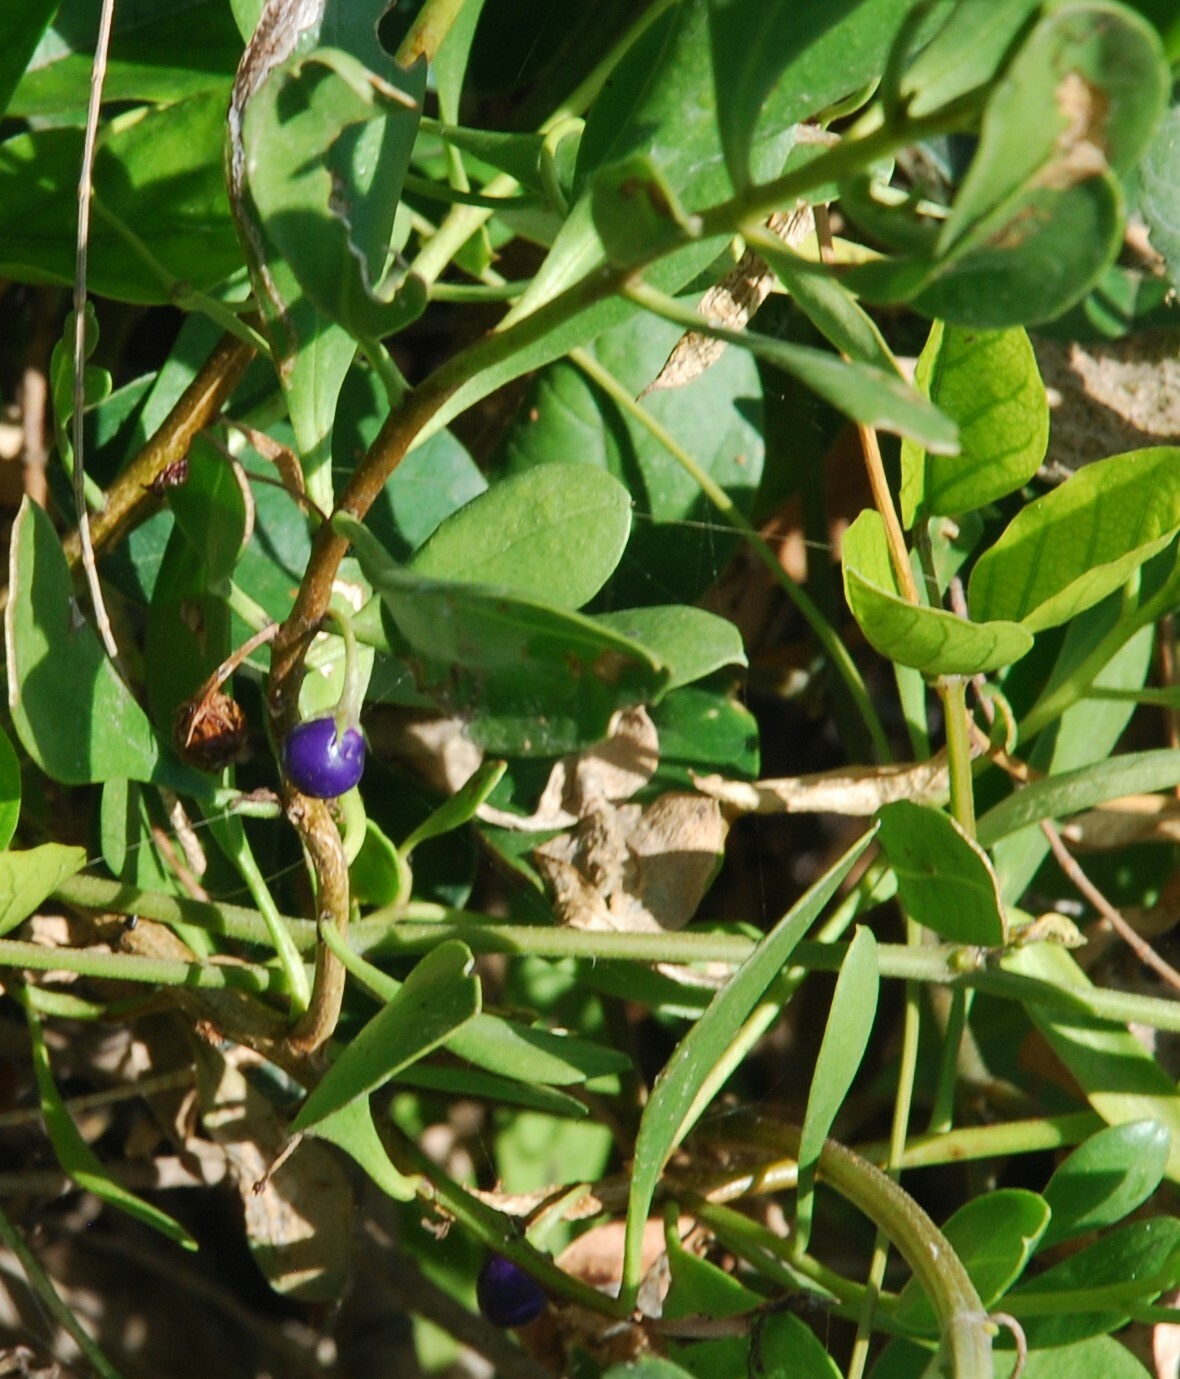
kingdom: Plantae
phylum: Tracheophyta
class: Magnoliopsida
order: Lamiales
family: Scrophulariaceae
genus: Myoporum
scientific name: Myoporum boninense
